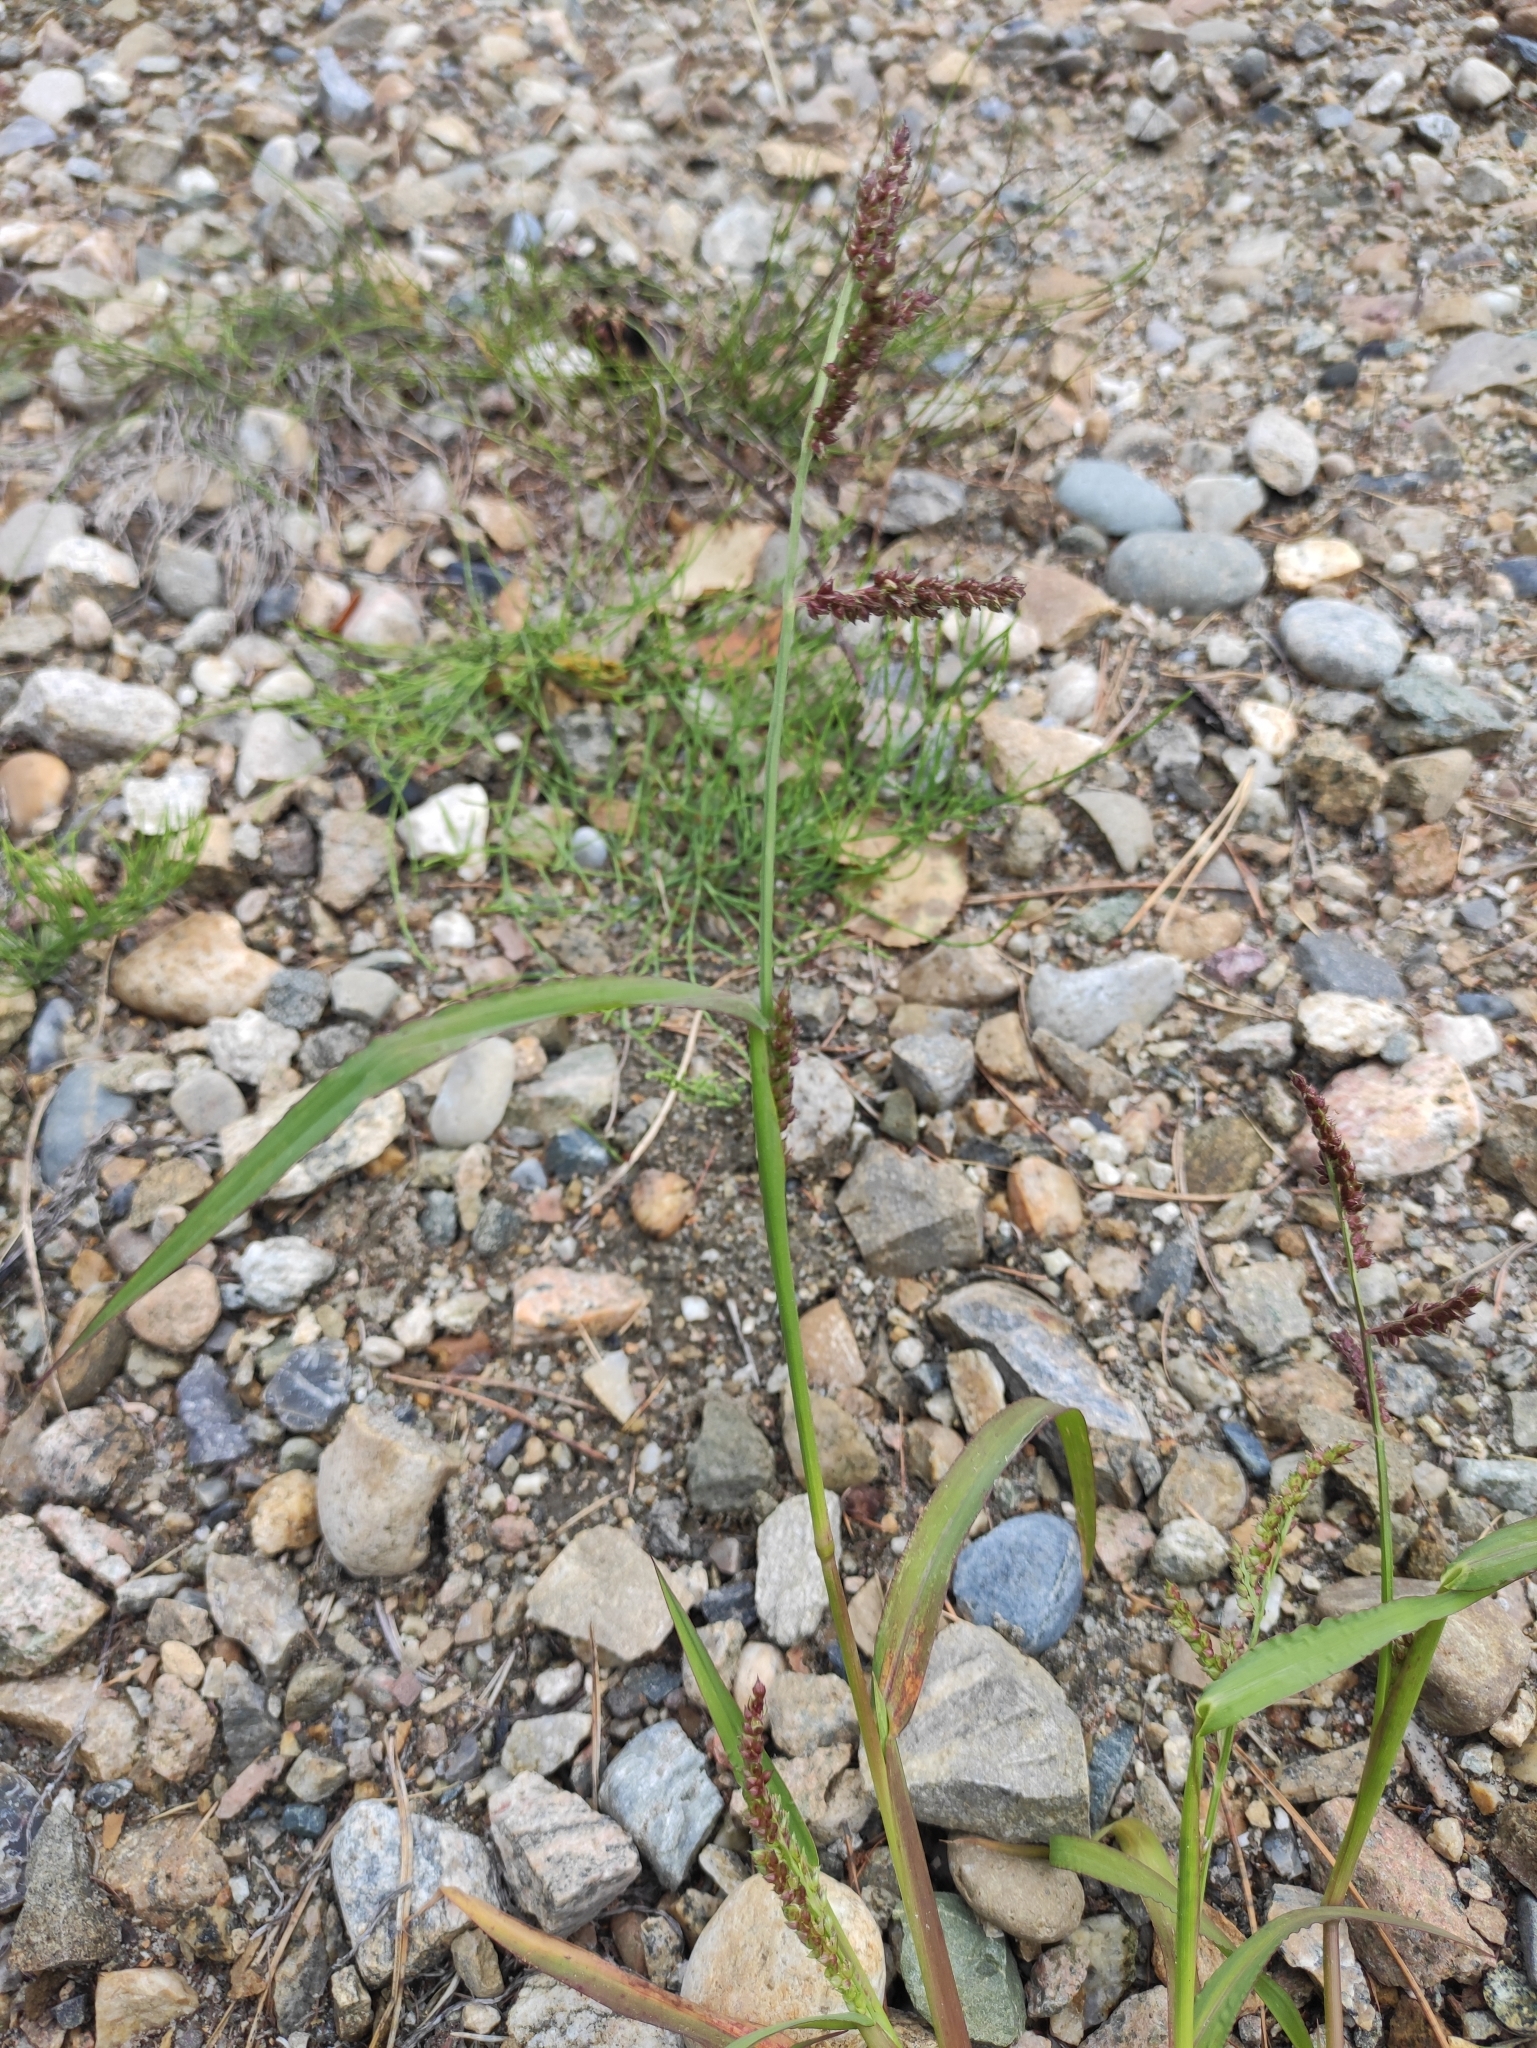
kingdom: Plantae
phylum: Tracheophyta
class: Liliopsida
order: Poales
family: Poaceae
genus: Echinochloa
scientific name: Echinochloa crus-galli
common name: Cockspur
